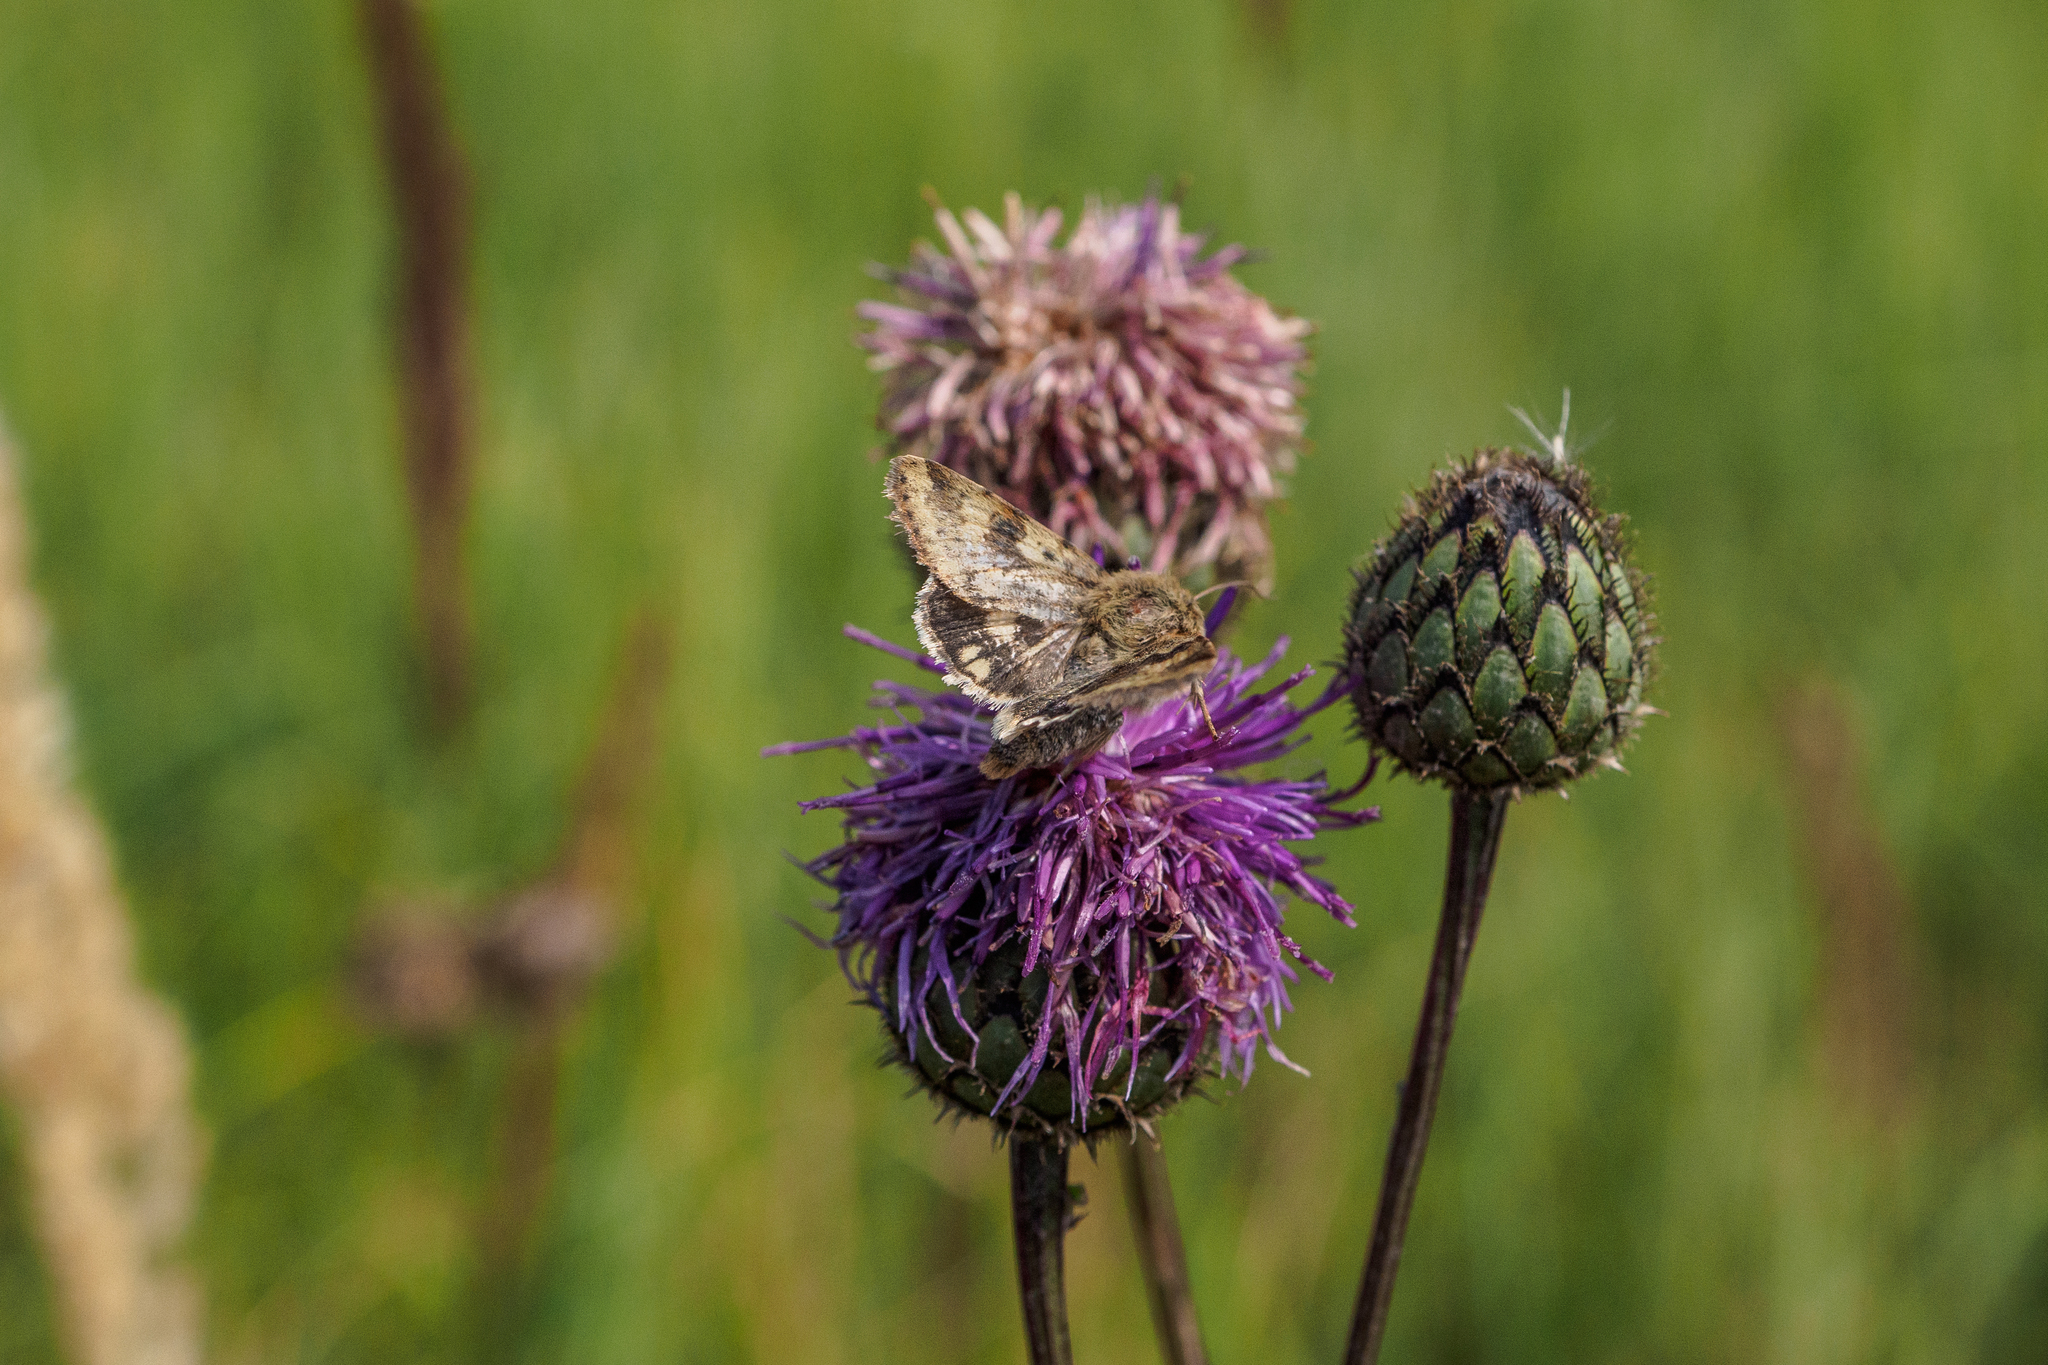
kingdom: Animalia
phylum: Arthropoda
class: Insecta
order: Lepidoptera
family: Noctuidae
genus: Heliothis
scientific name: Heliothis viriplaca
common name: Marbled clover
